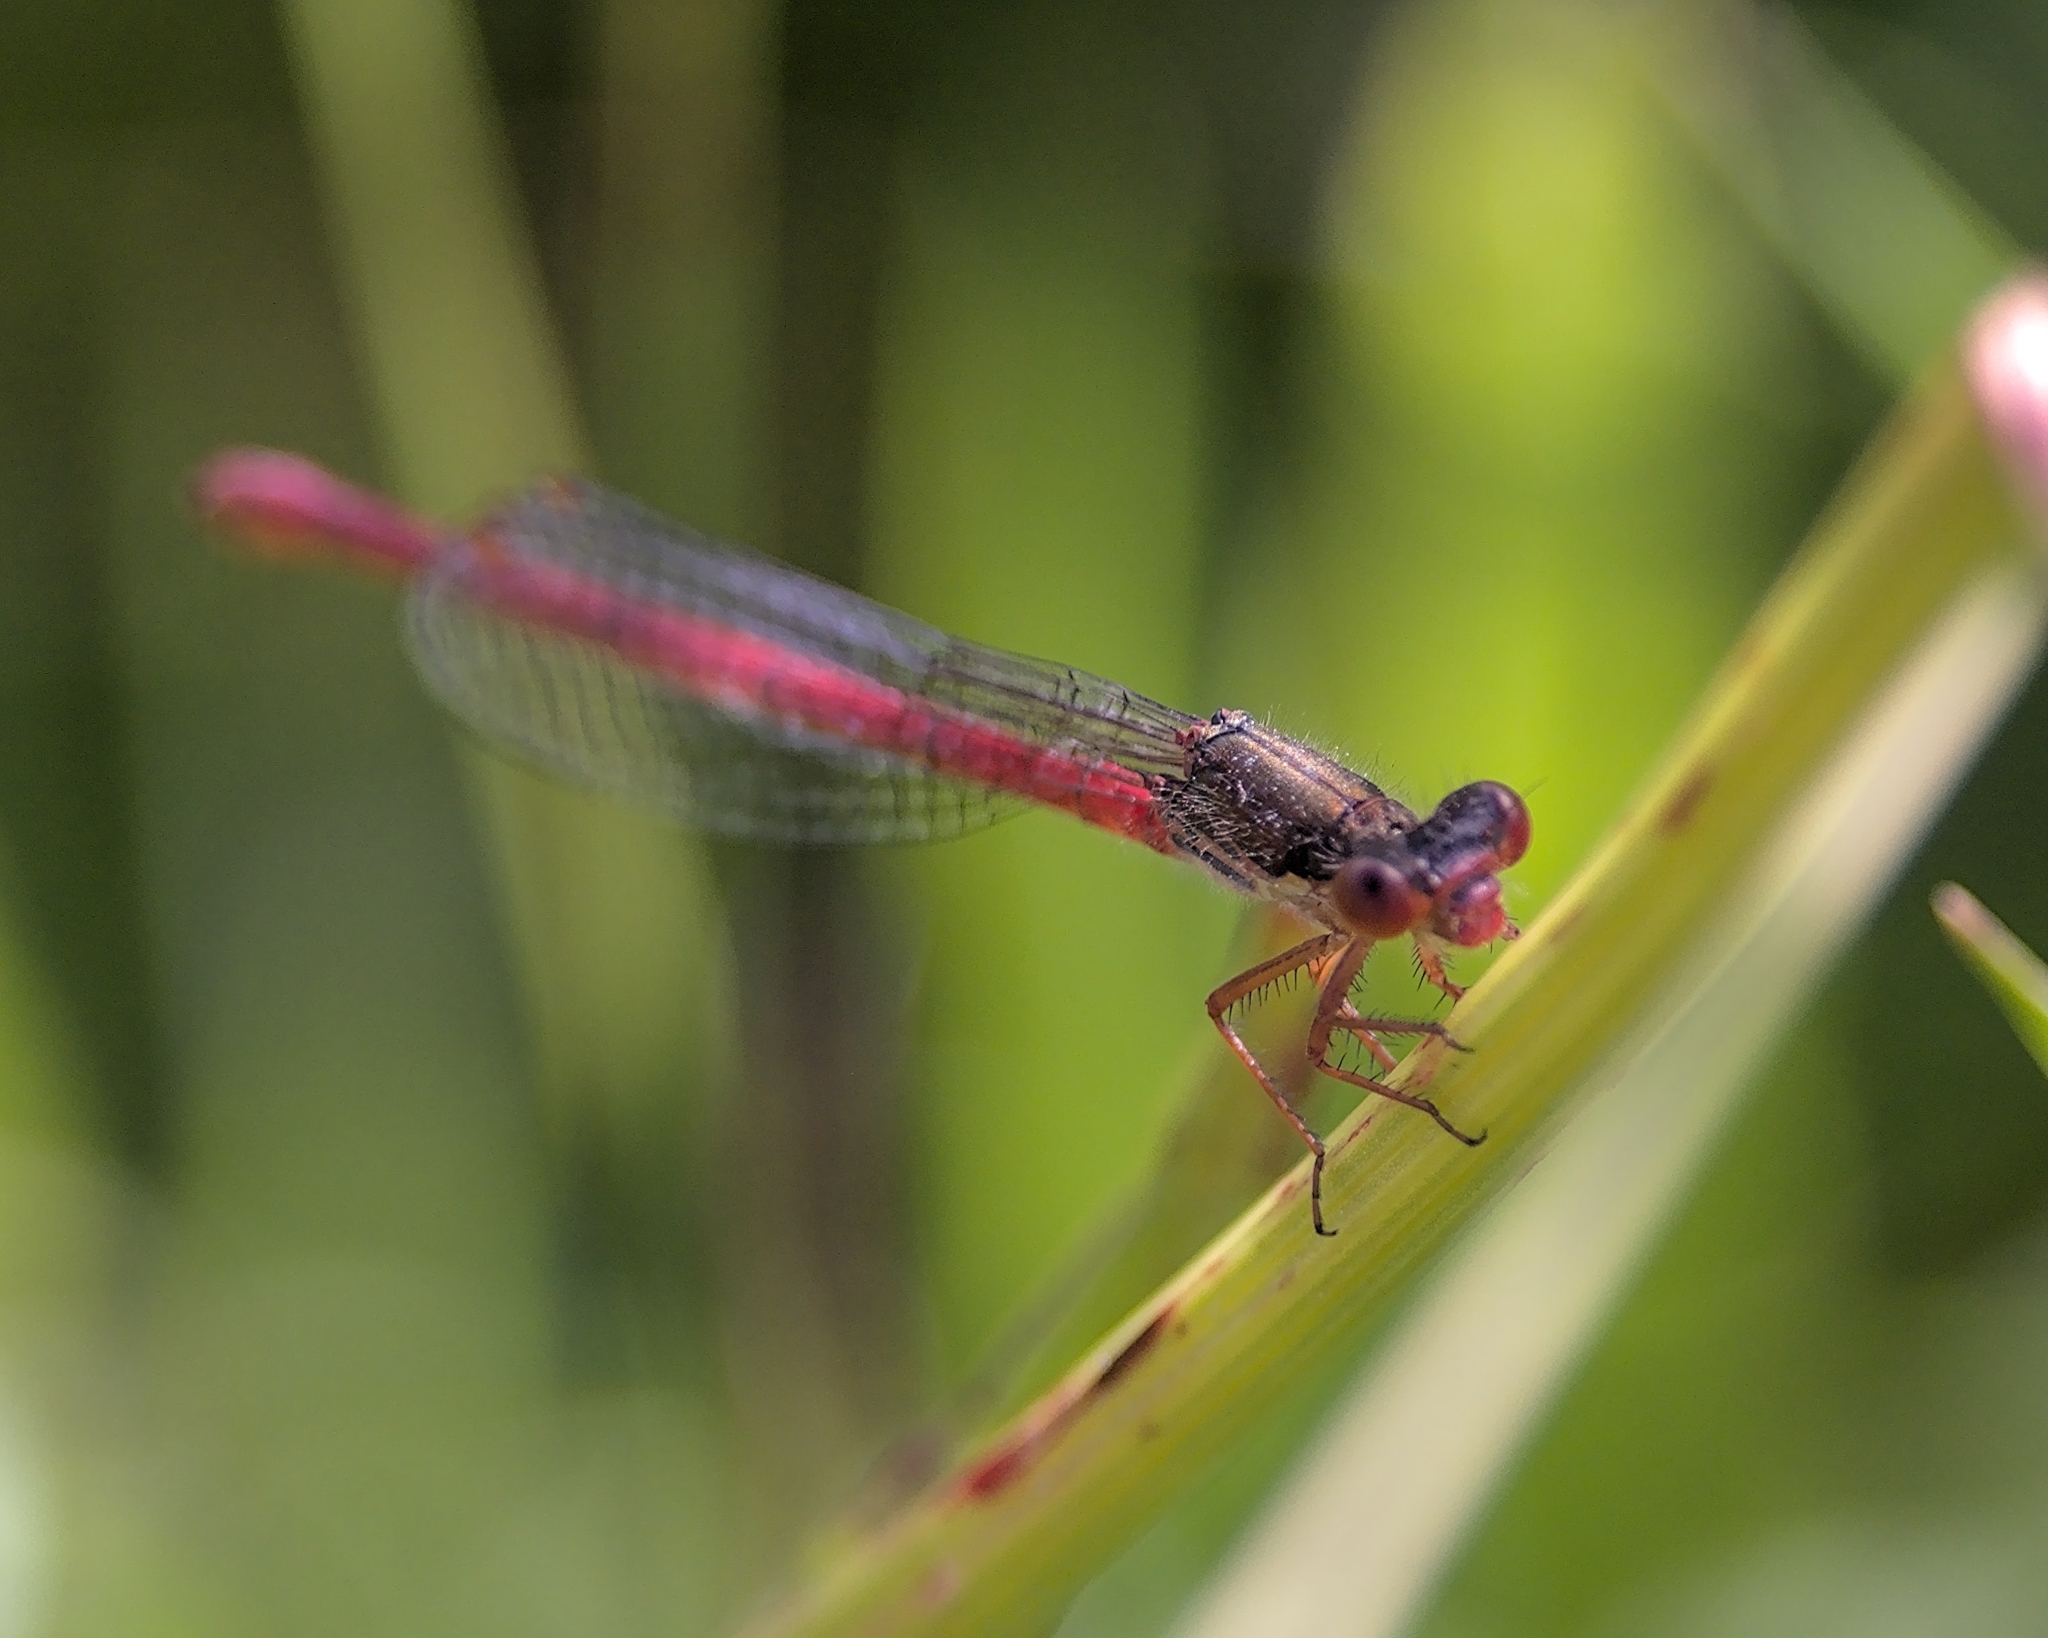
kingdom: Animalia
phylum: Arthropoda
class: Insecta
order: Odonata
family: Coenagrionidae
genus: Ceriagrion
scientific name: Ceriagrion tenellum
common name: Small red damselfly
